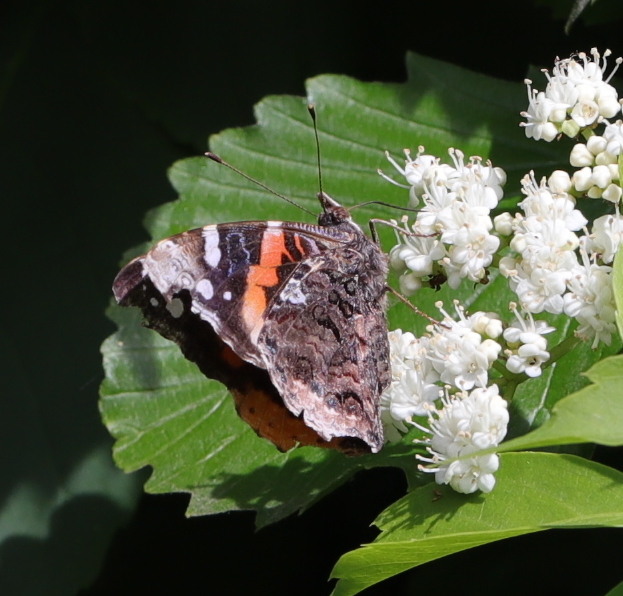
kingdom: Animalia
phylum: Arthropoda
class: Insecta
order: Lepidoptera
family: Nymphalidae
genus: Vanessa
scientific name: Vanessa atalanta
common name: Red admiral
